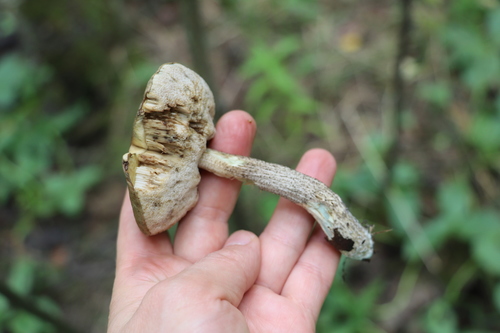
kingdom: Fungi
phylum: Basidiomycota
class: Agaricomycetes
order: Boletales
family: Boletaceae
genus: Leccinum
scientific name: Leccinum
